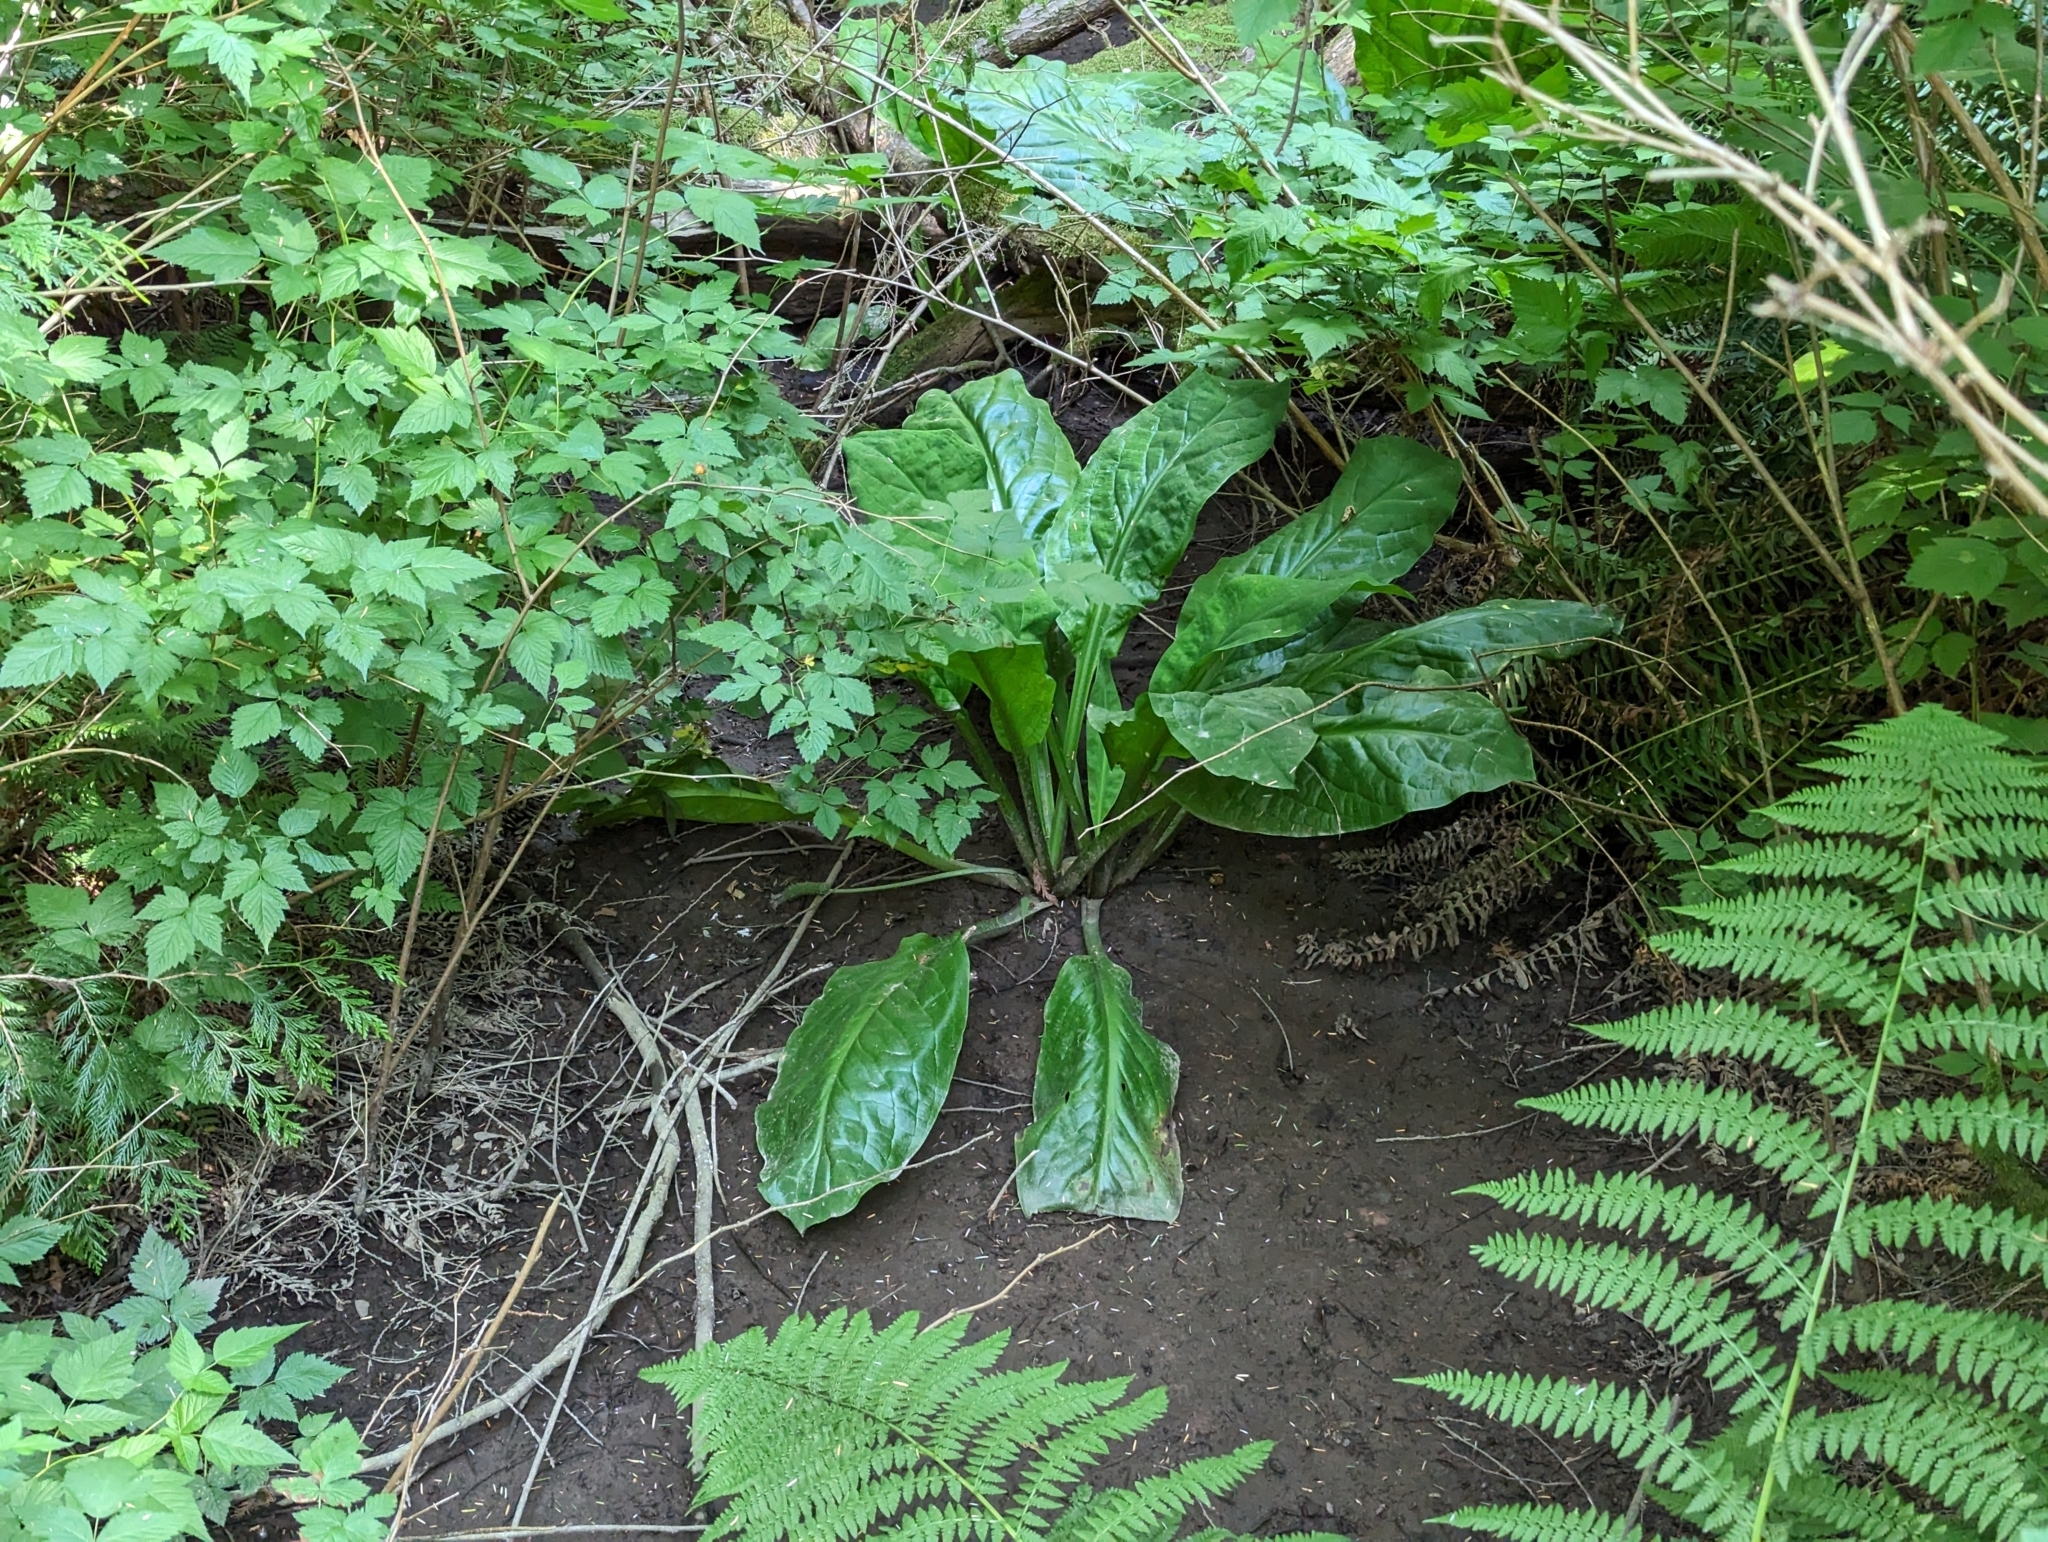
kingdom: Plantae
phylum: Tracheophyta
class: Liliopsida
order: Alismatales
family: Araceae
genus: Lysichiton
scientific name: Lysichiton americanus
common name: American skunk cabbage
